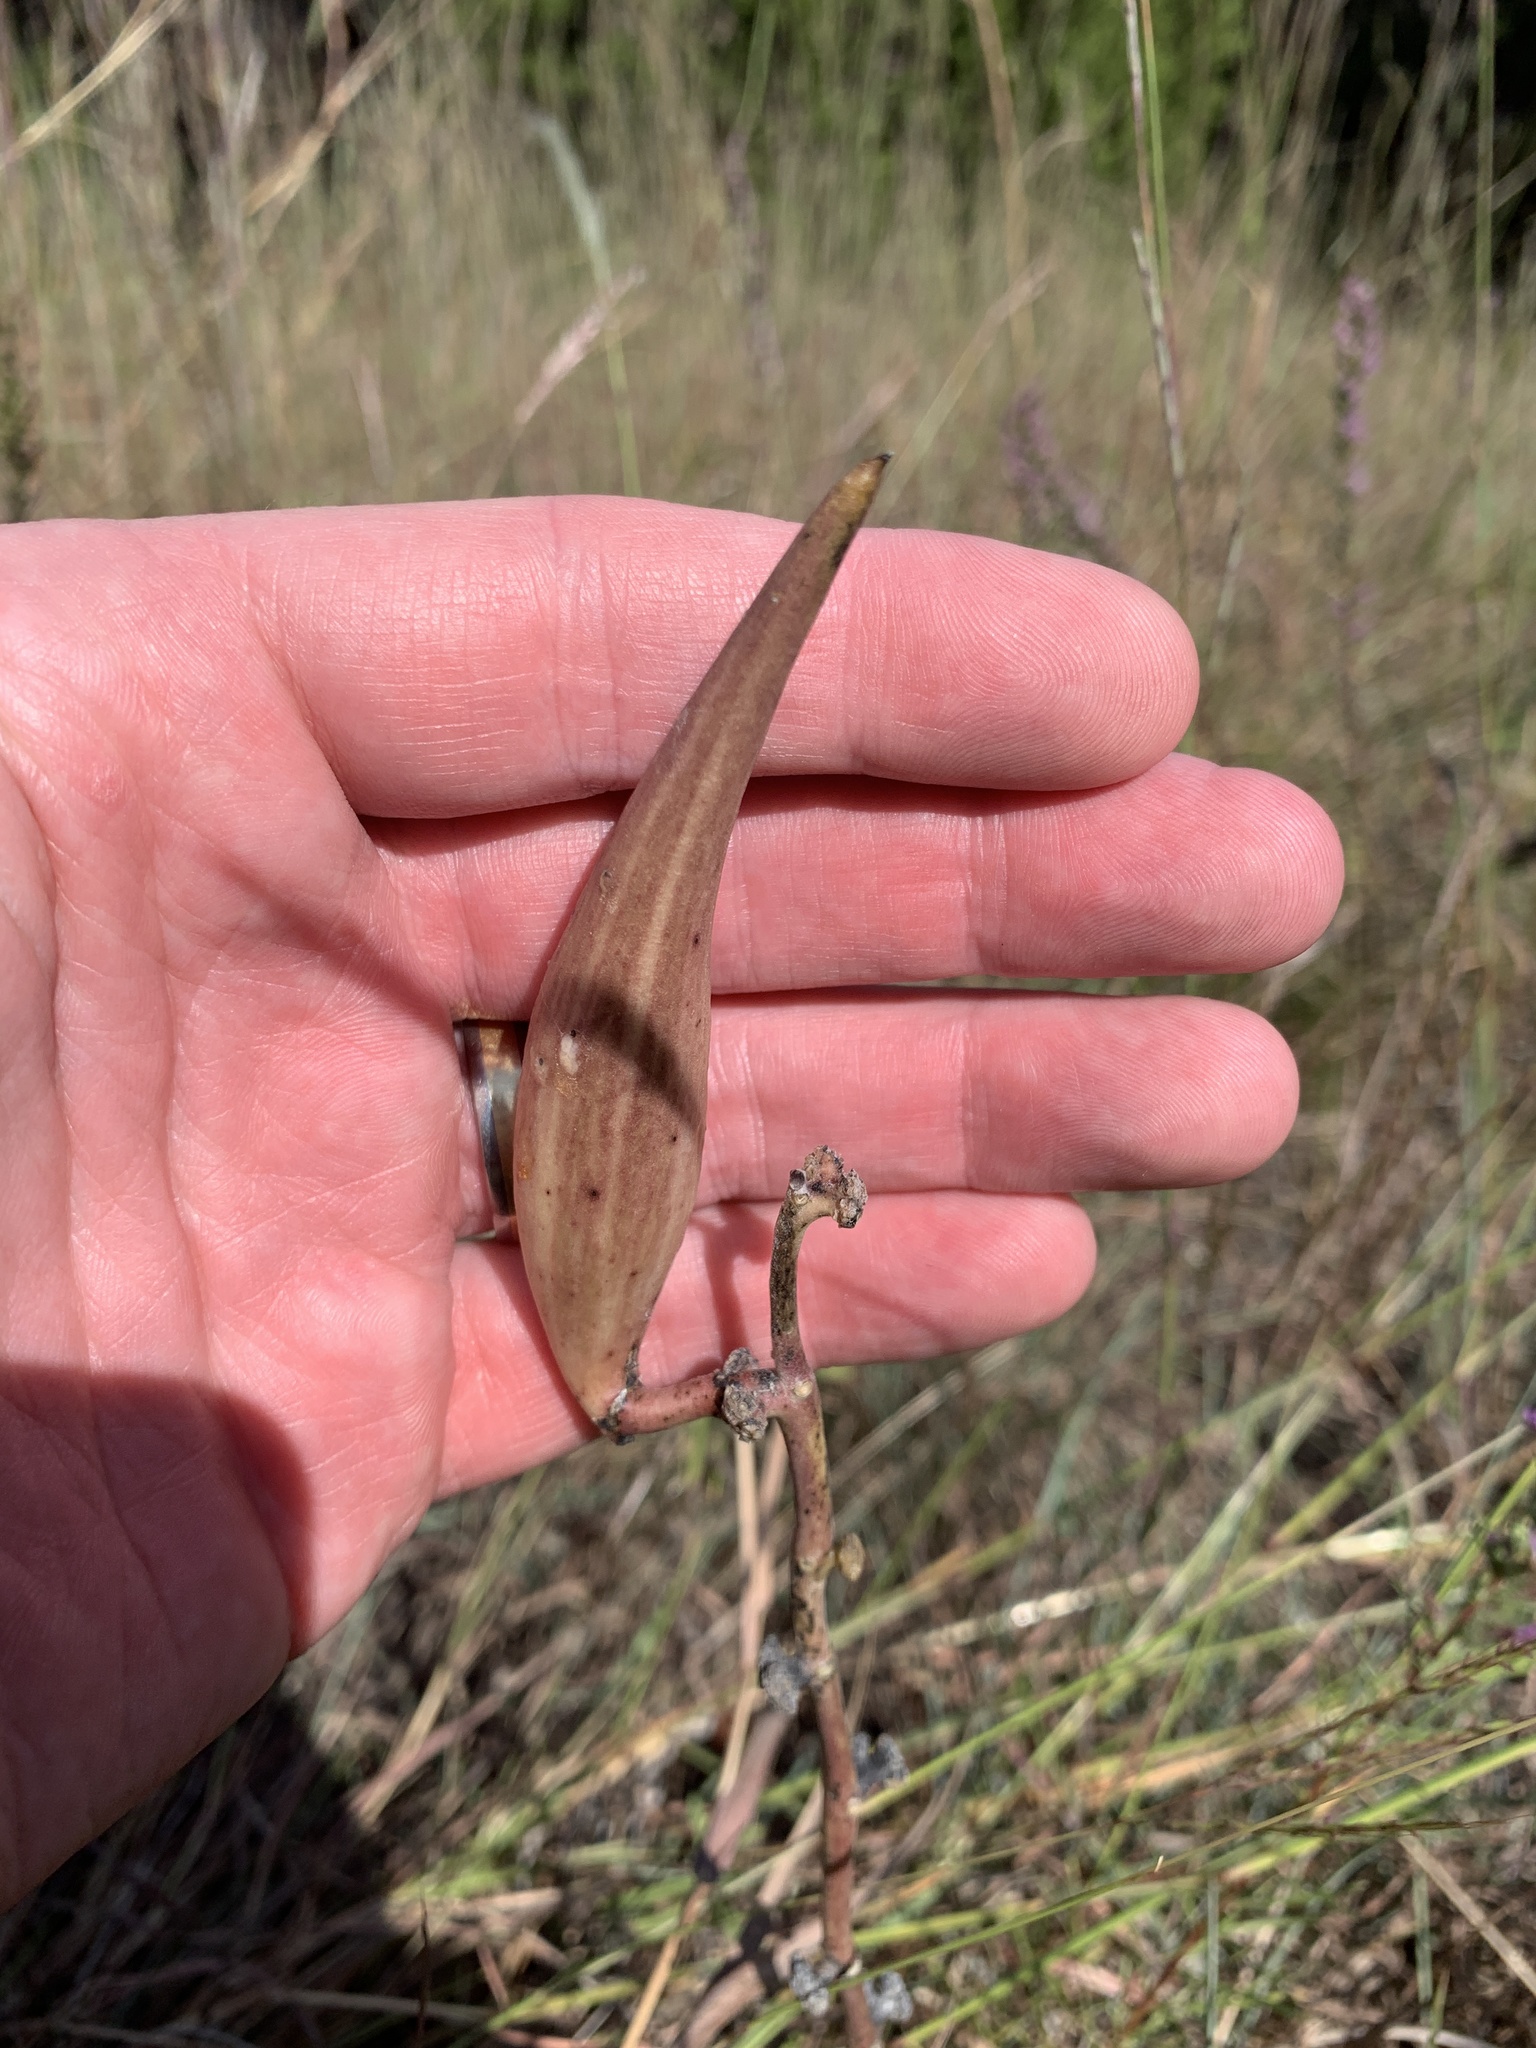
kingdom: Plantae
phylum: Tracheophyta
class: Magnoliopsida
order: Gentianales
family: Apocynaceae
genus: Asclepias
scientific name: Asclepias viridiflora
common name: Green comet milkweed
